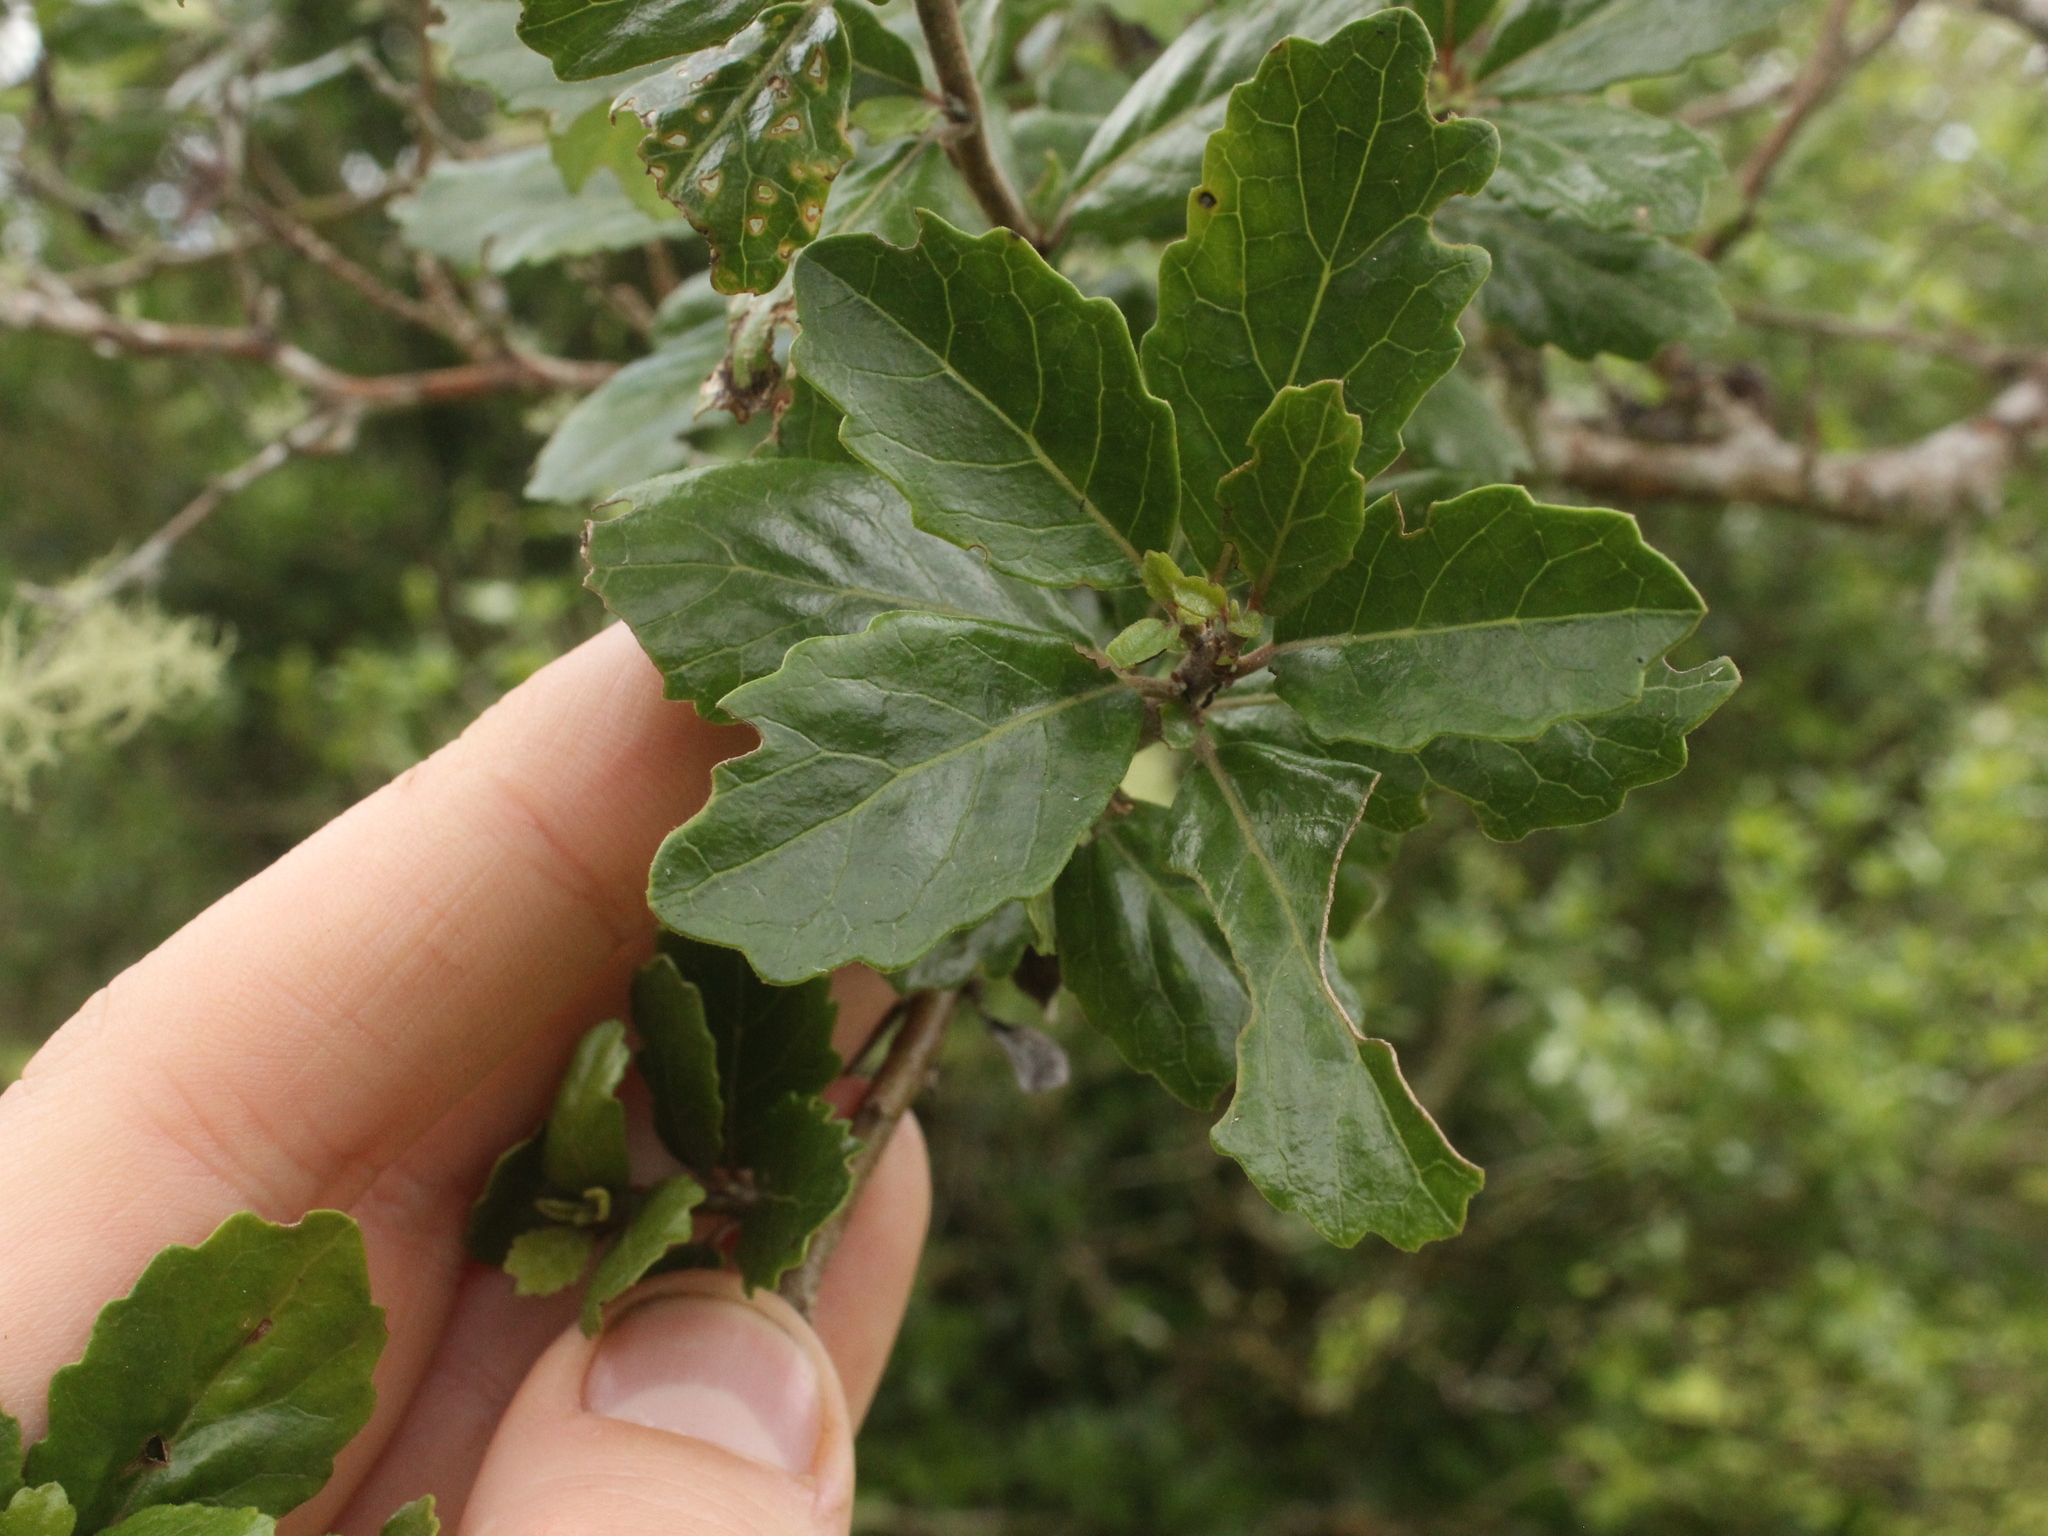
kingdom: Plantae
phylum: Tracheophyta
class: Magnoliopsida
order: Apiales
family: Pennantiaceae
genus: Pennantia
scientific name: Pennantia corymbosa
